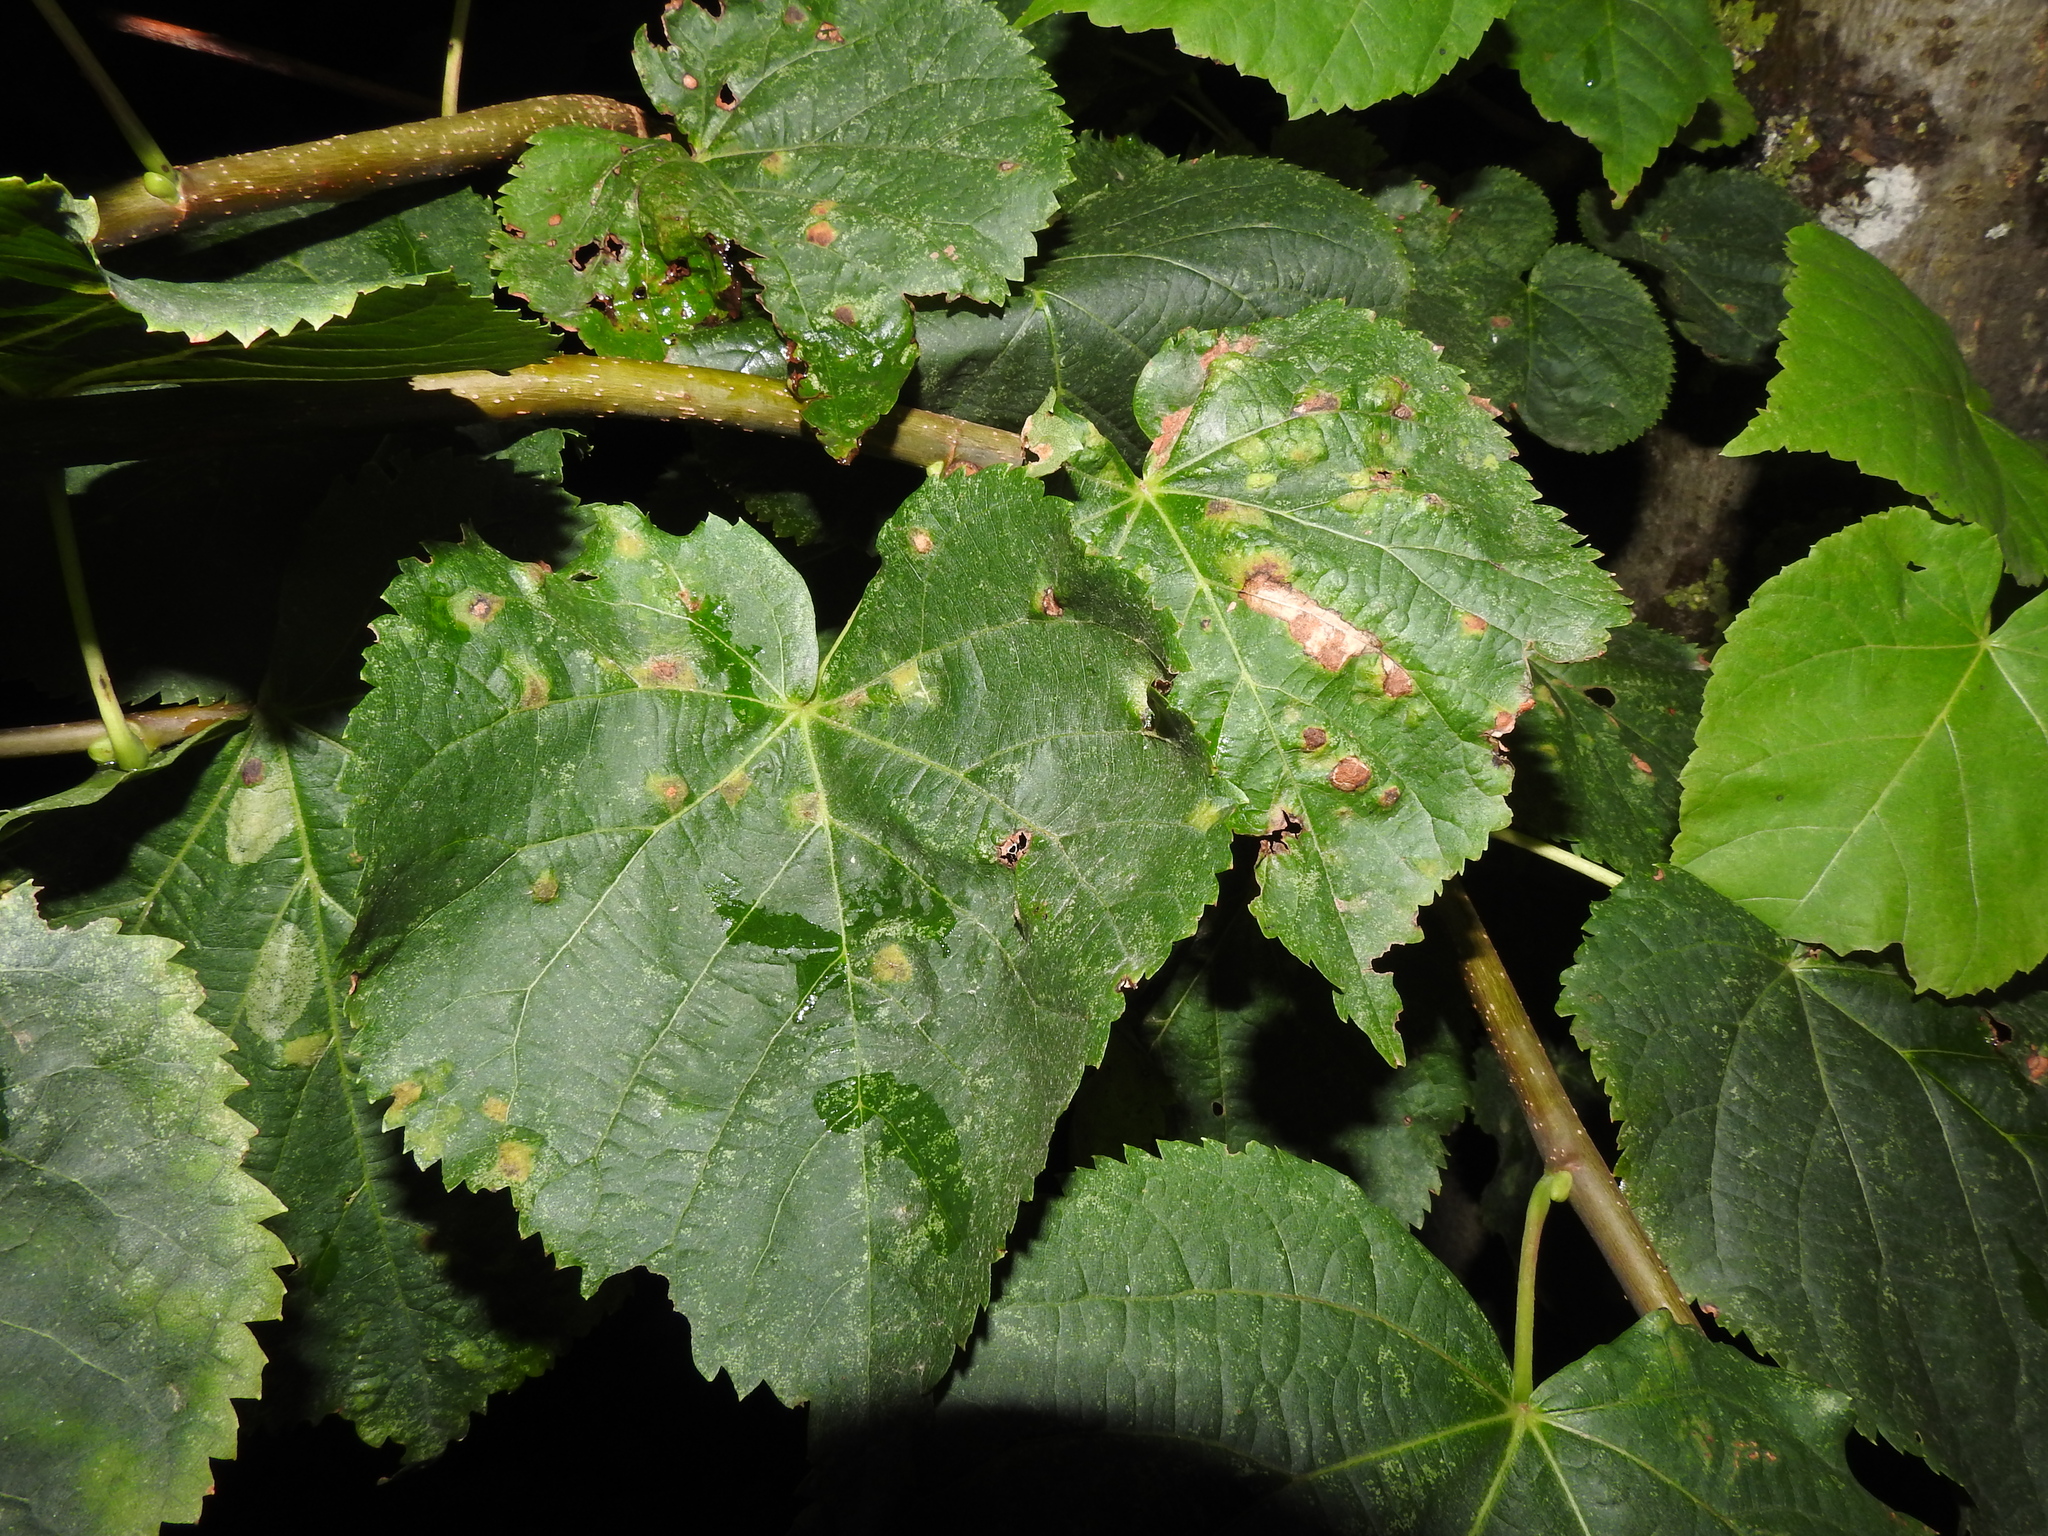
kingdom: Animalia
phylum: Arthropoda
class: Arachnida
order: Trombidiformes
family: Eriophyidae
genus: Eriophyes
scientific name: Eriophyes leiosoma
